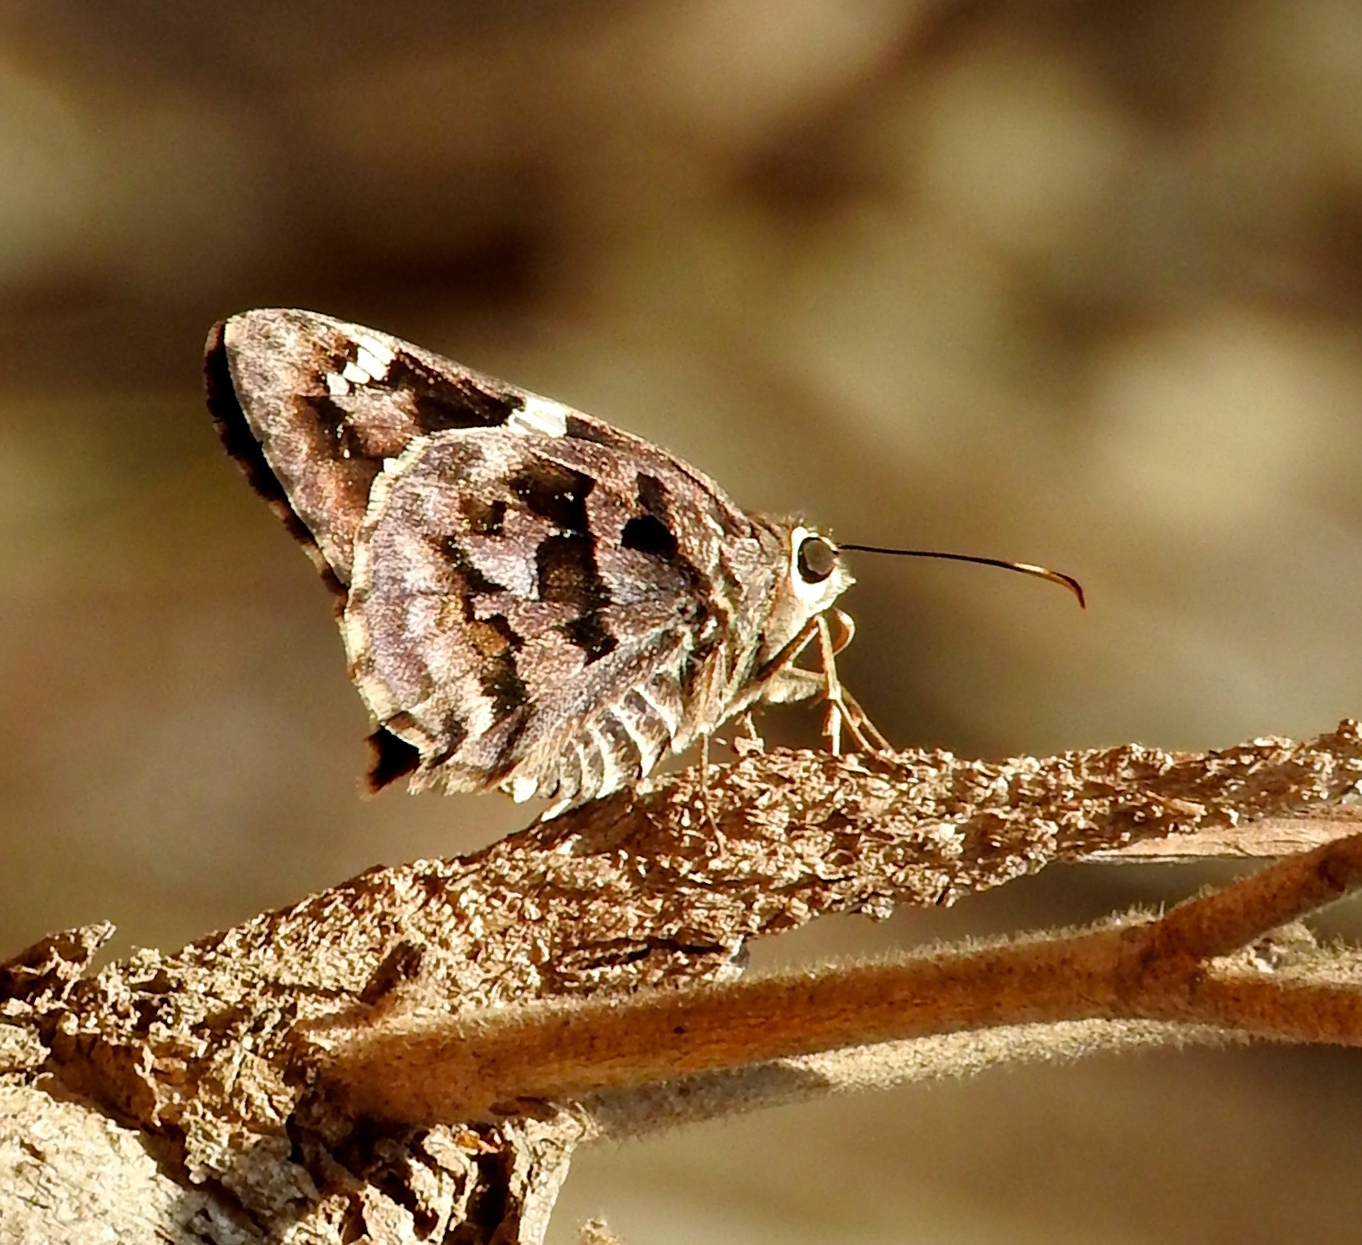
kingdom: Animalia
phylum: Arthropoda
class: Insecta
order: Lepidoptera
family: Hesperiidae
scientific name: Hesperiidae
